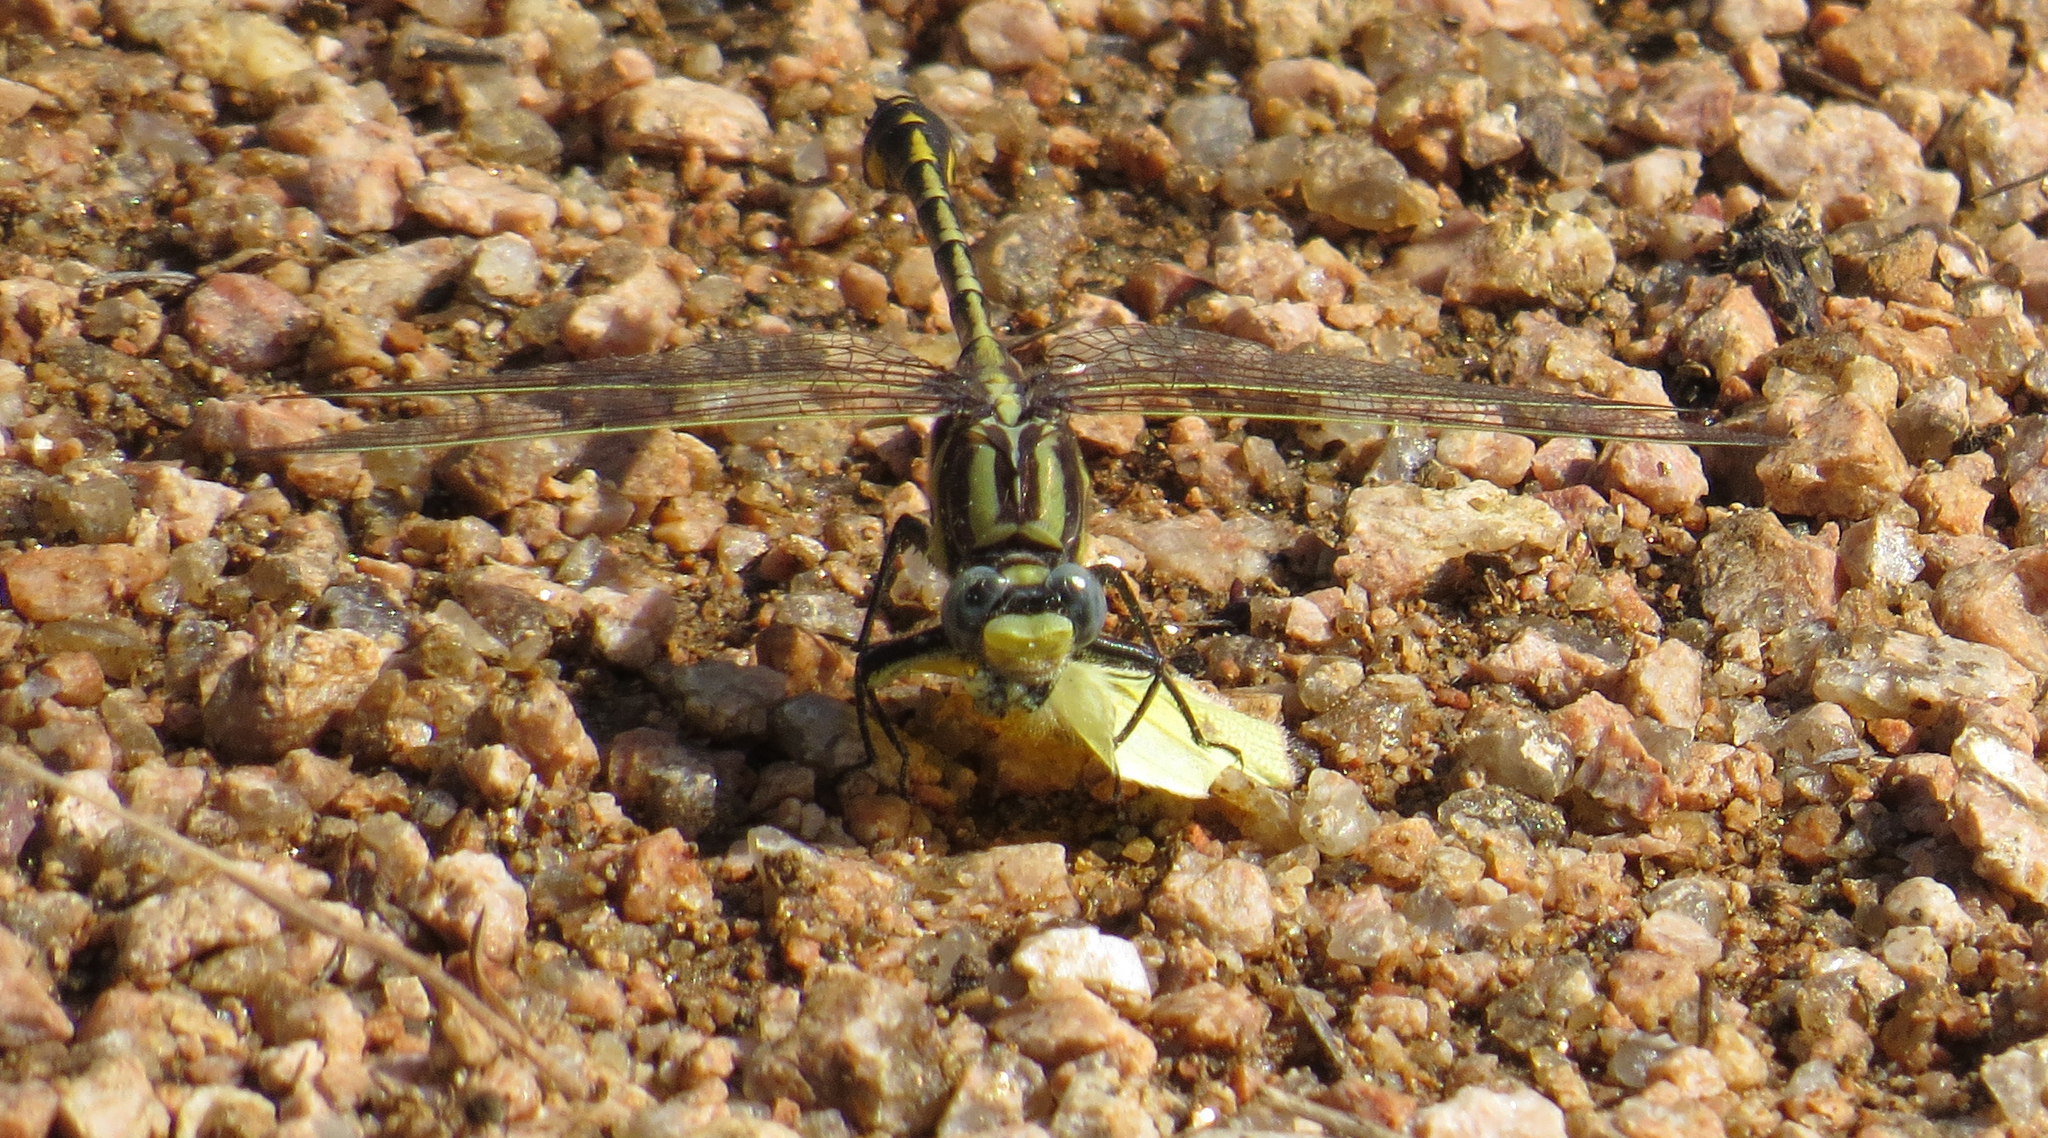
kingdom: Animalia
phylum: Arthropoda
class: Insecta
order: Odonata
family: Gomphidae
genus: Gomphurus
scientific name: Gomphurus externus
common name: Plains clubtail
